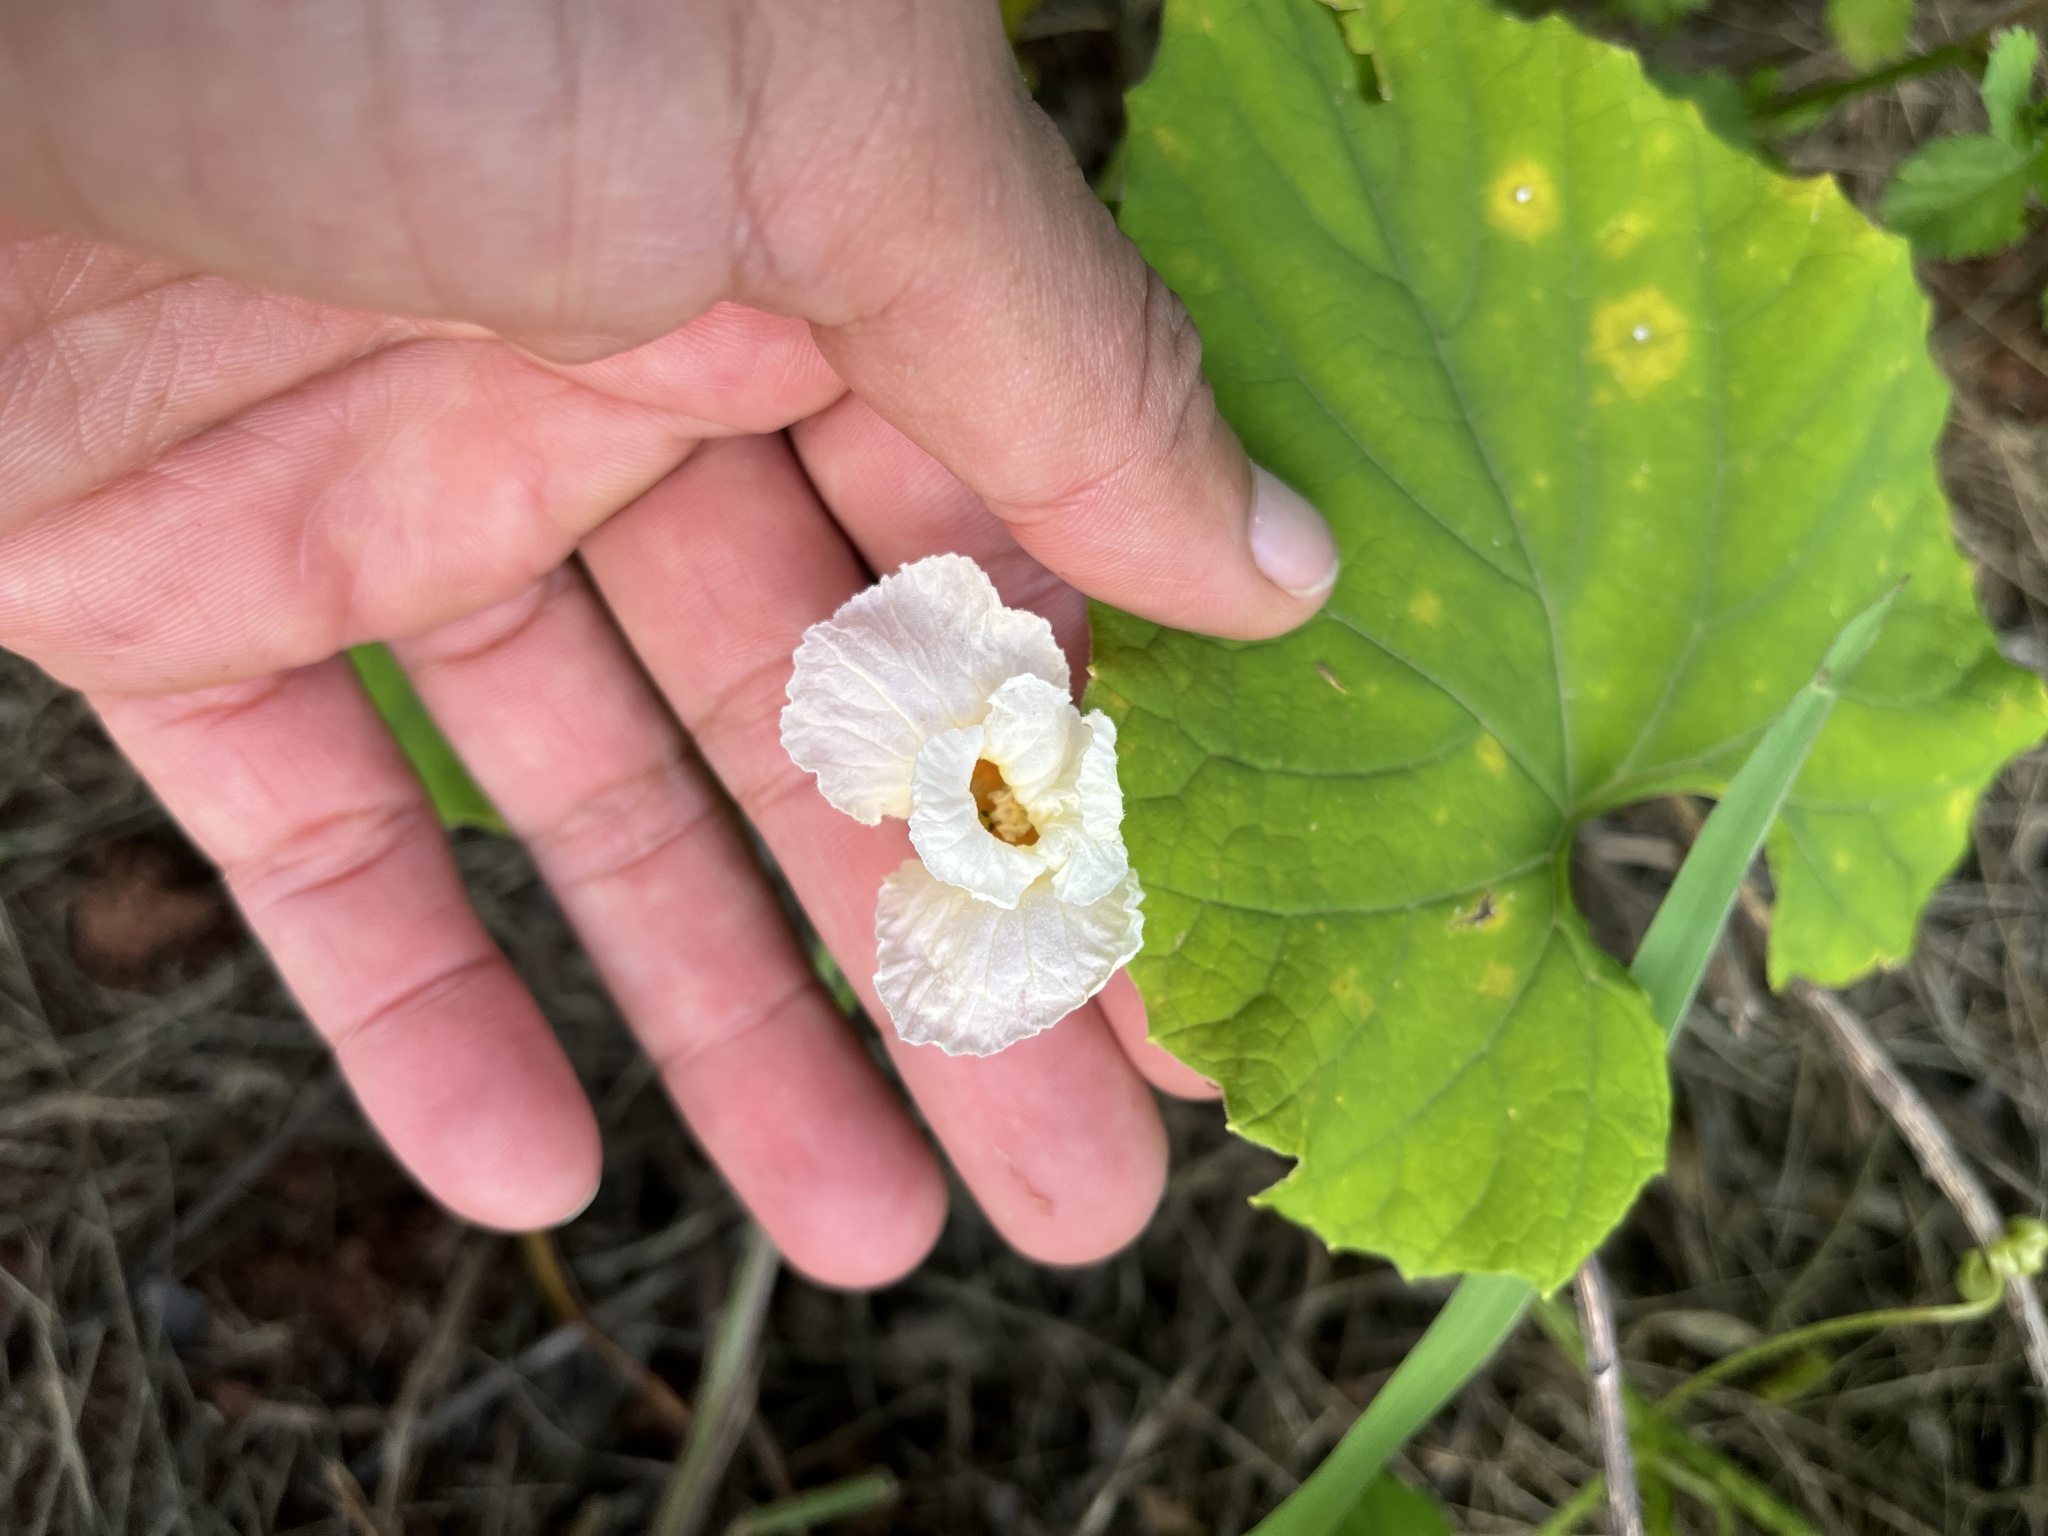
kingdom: Plantae
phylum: Tracheophyta
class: Magnoliopsida
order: Cucurbitales
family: Cucurbitaceae
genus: Momordica
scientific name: Momordica foetida
